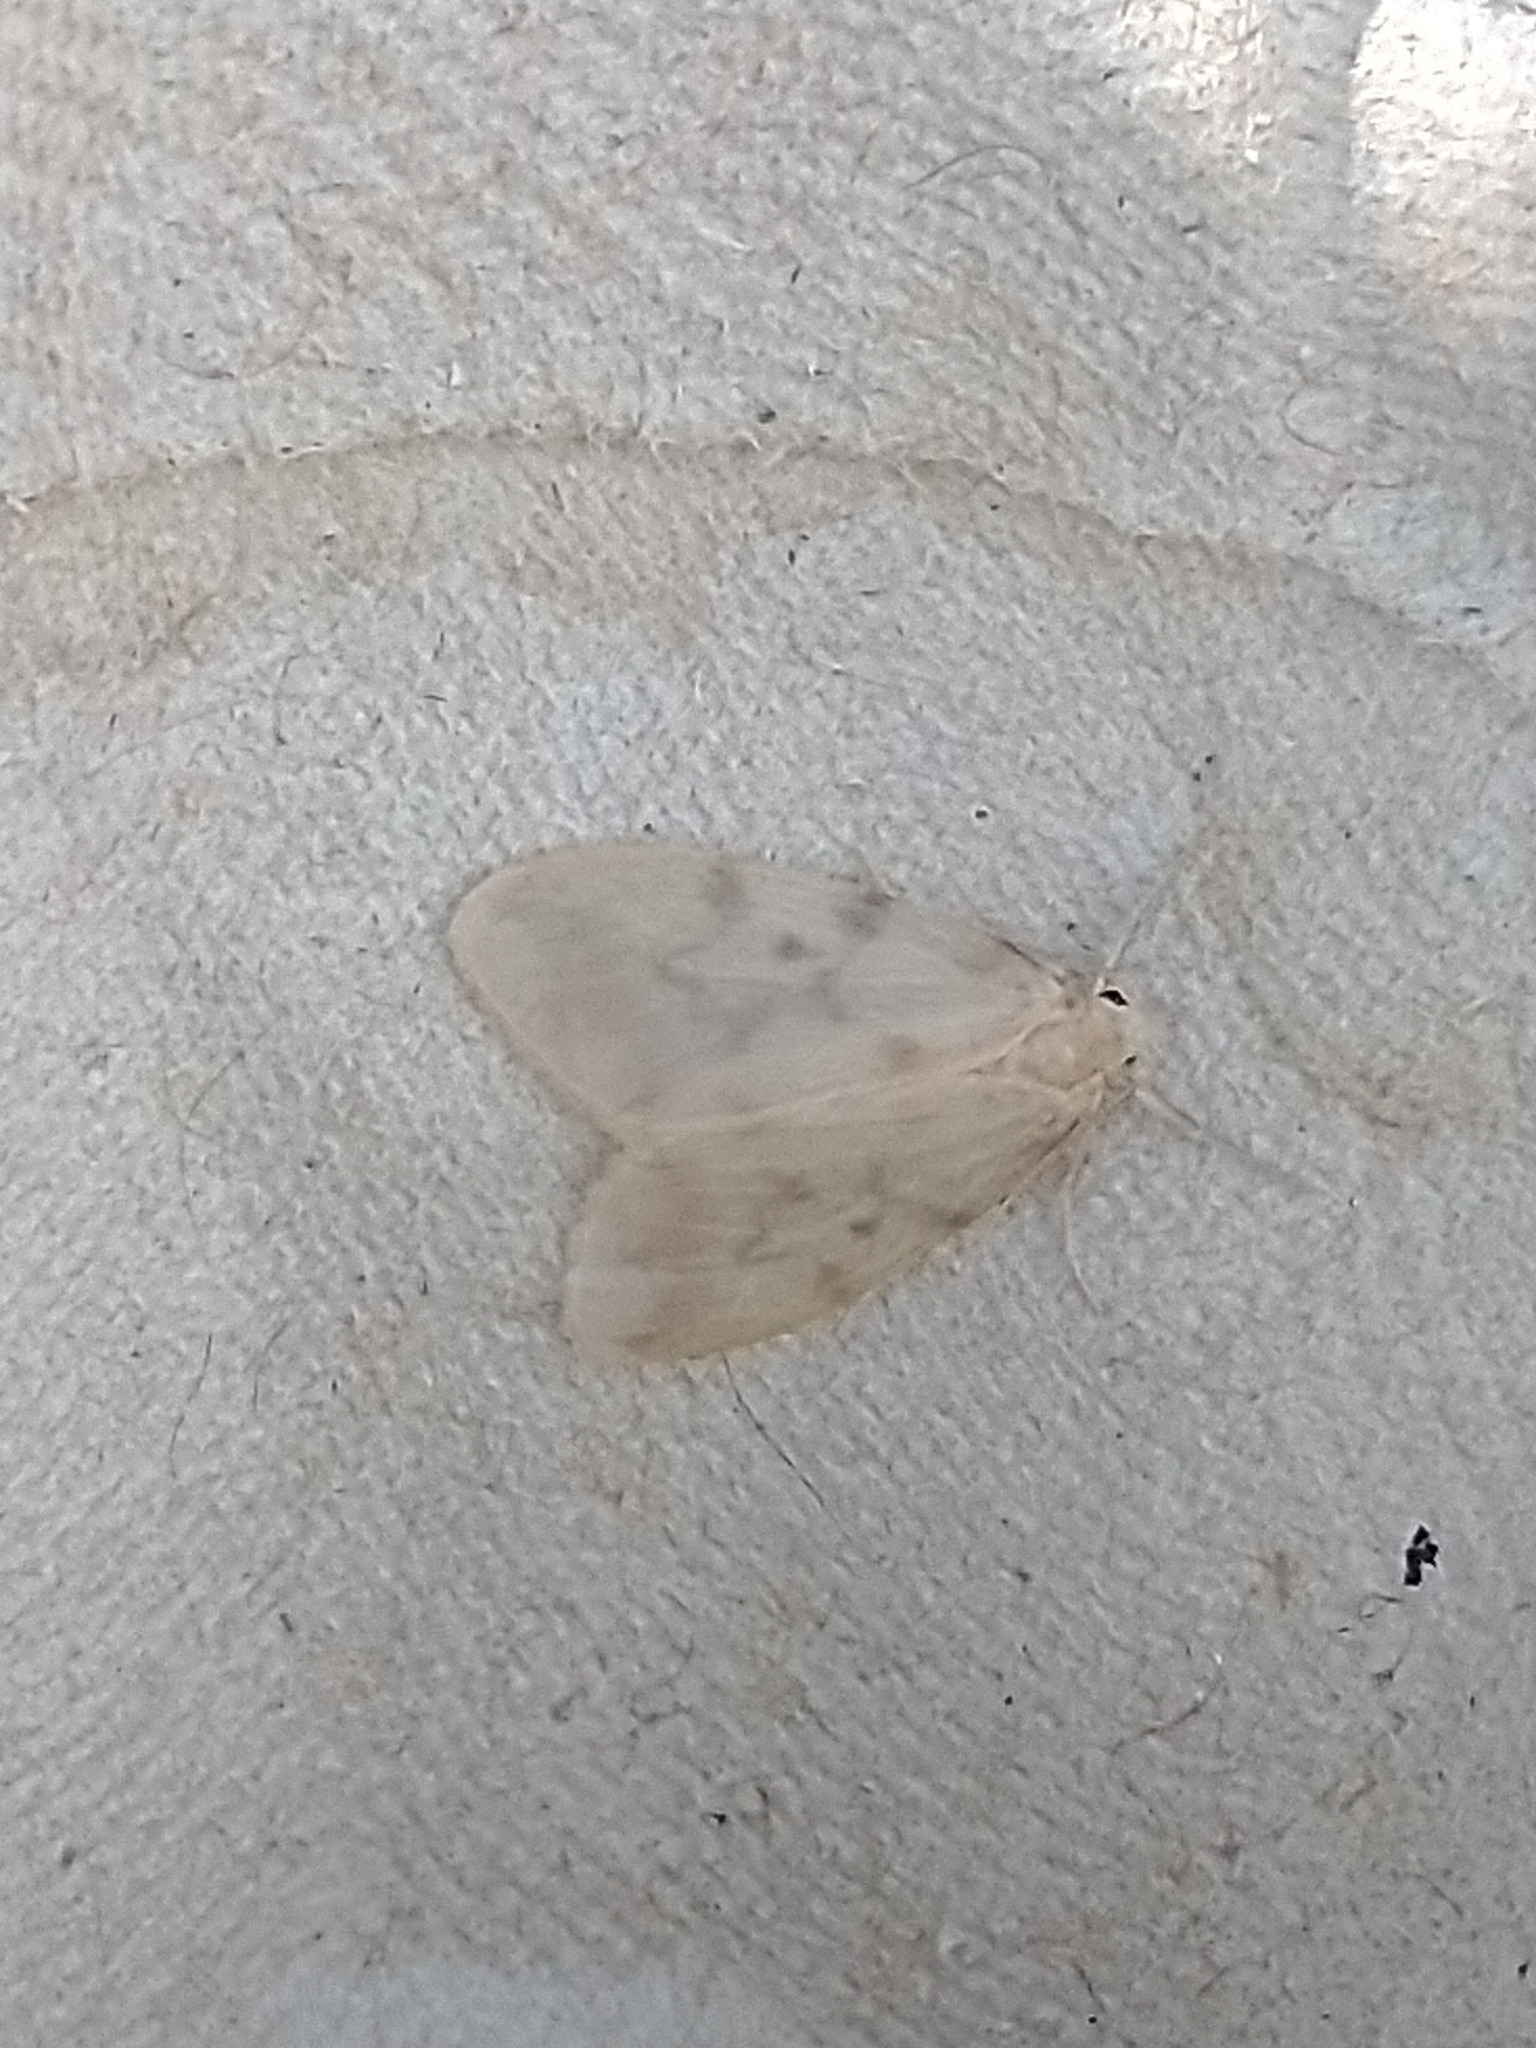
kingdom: Animalia
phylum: Arthropoda
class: Insecta
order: Lepidoptera
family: Erebidae
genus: Nudaria
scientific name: Nudaria mundana
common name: Muslin footman
